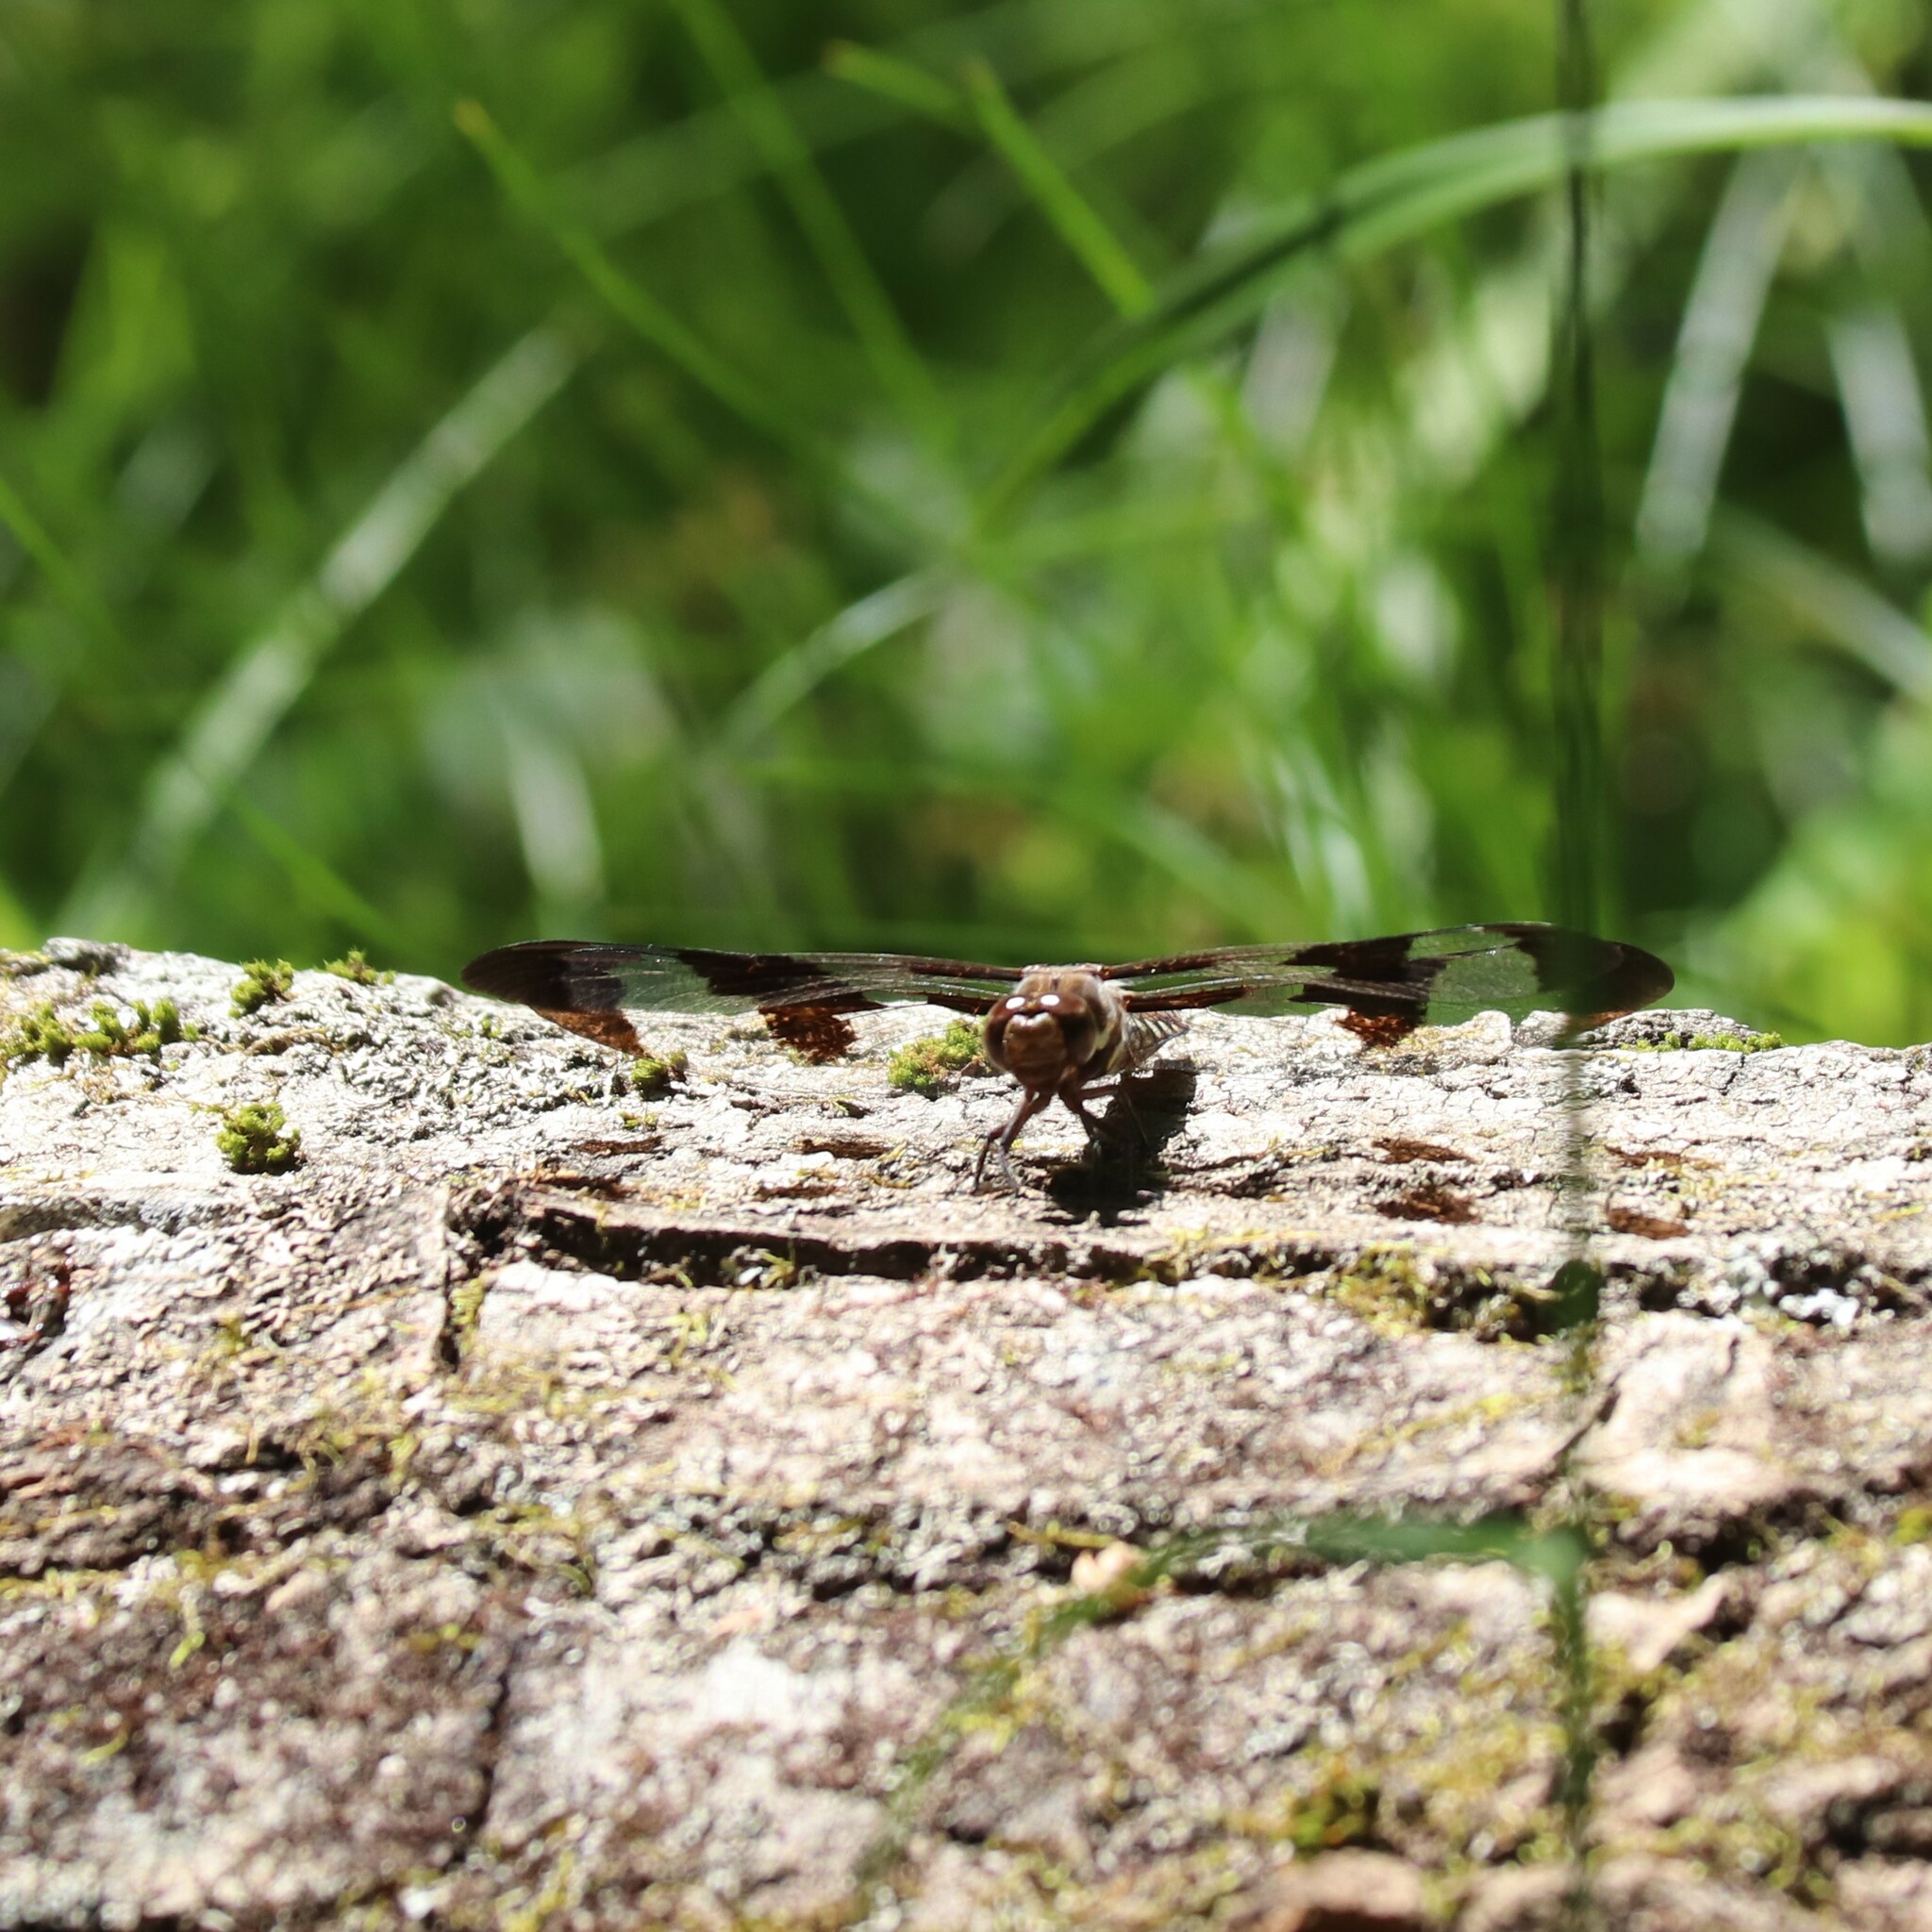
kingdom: Animalia
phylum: Arthropoda
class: Insecta
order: Odonata
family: Libellulidae
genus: Plathemis
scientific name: Plathemis lydia
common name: Common whitetail
